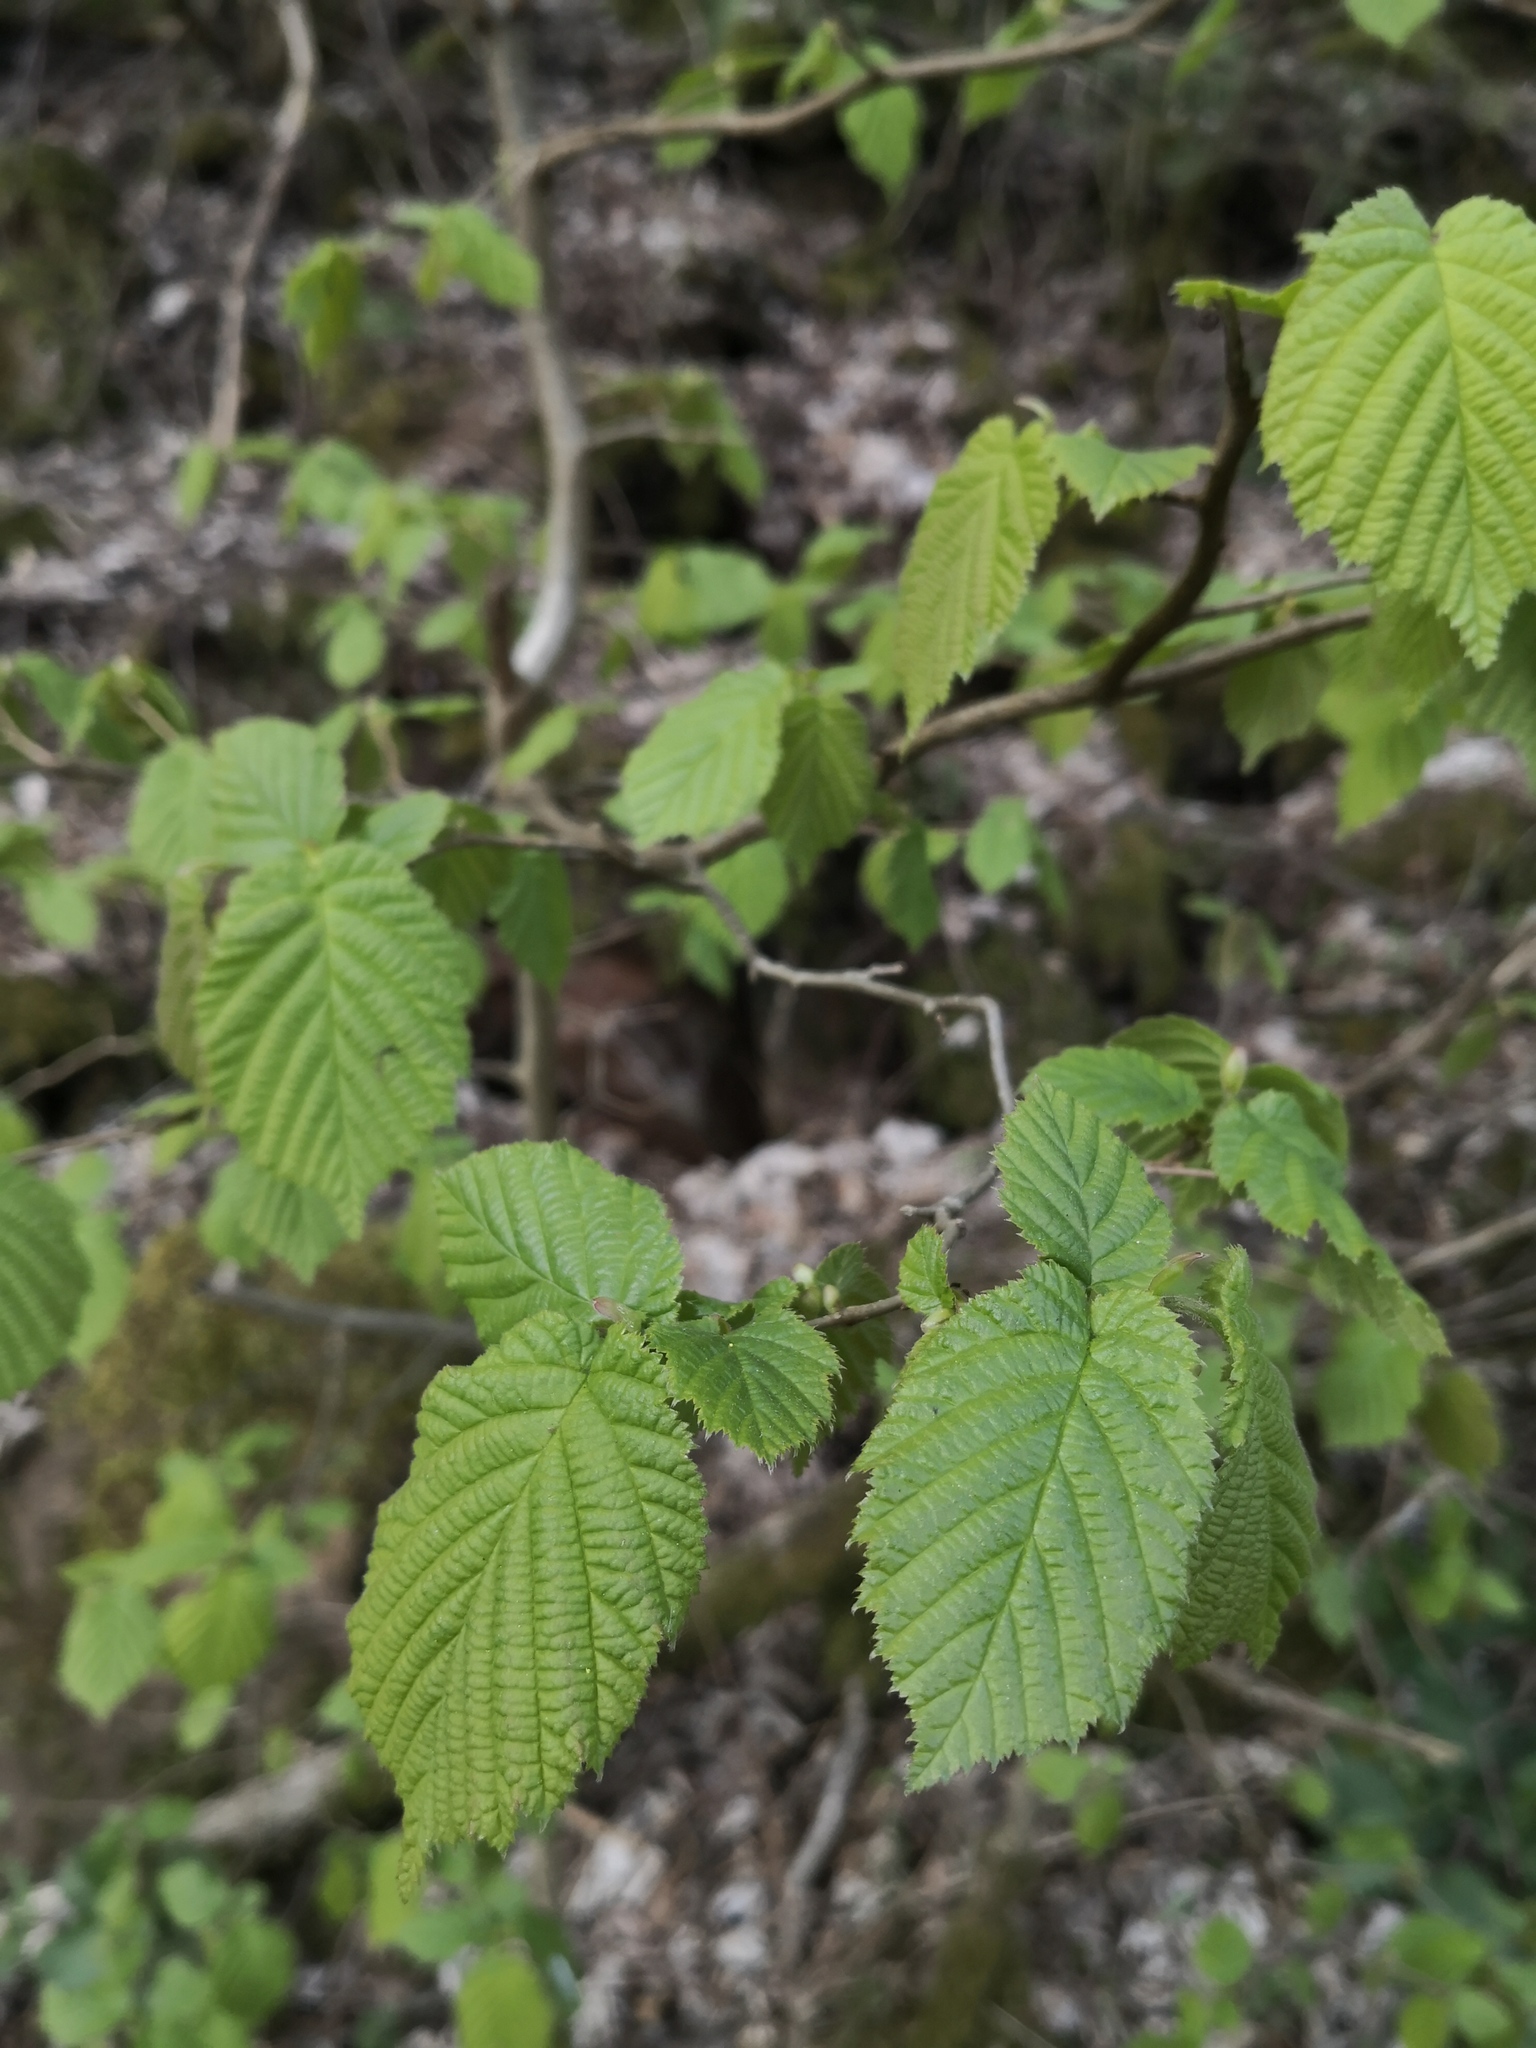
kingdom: Plantae
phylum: Tracheophyta
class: Magnoliopsida
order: Fagales
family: Betulaceae
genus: Corylus
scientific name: Corylus avellana
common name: European hazel
